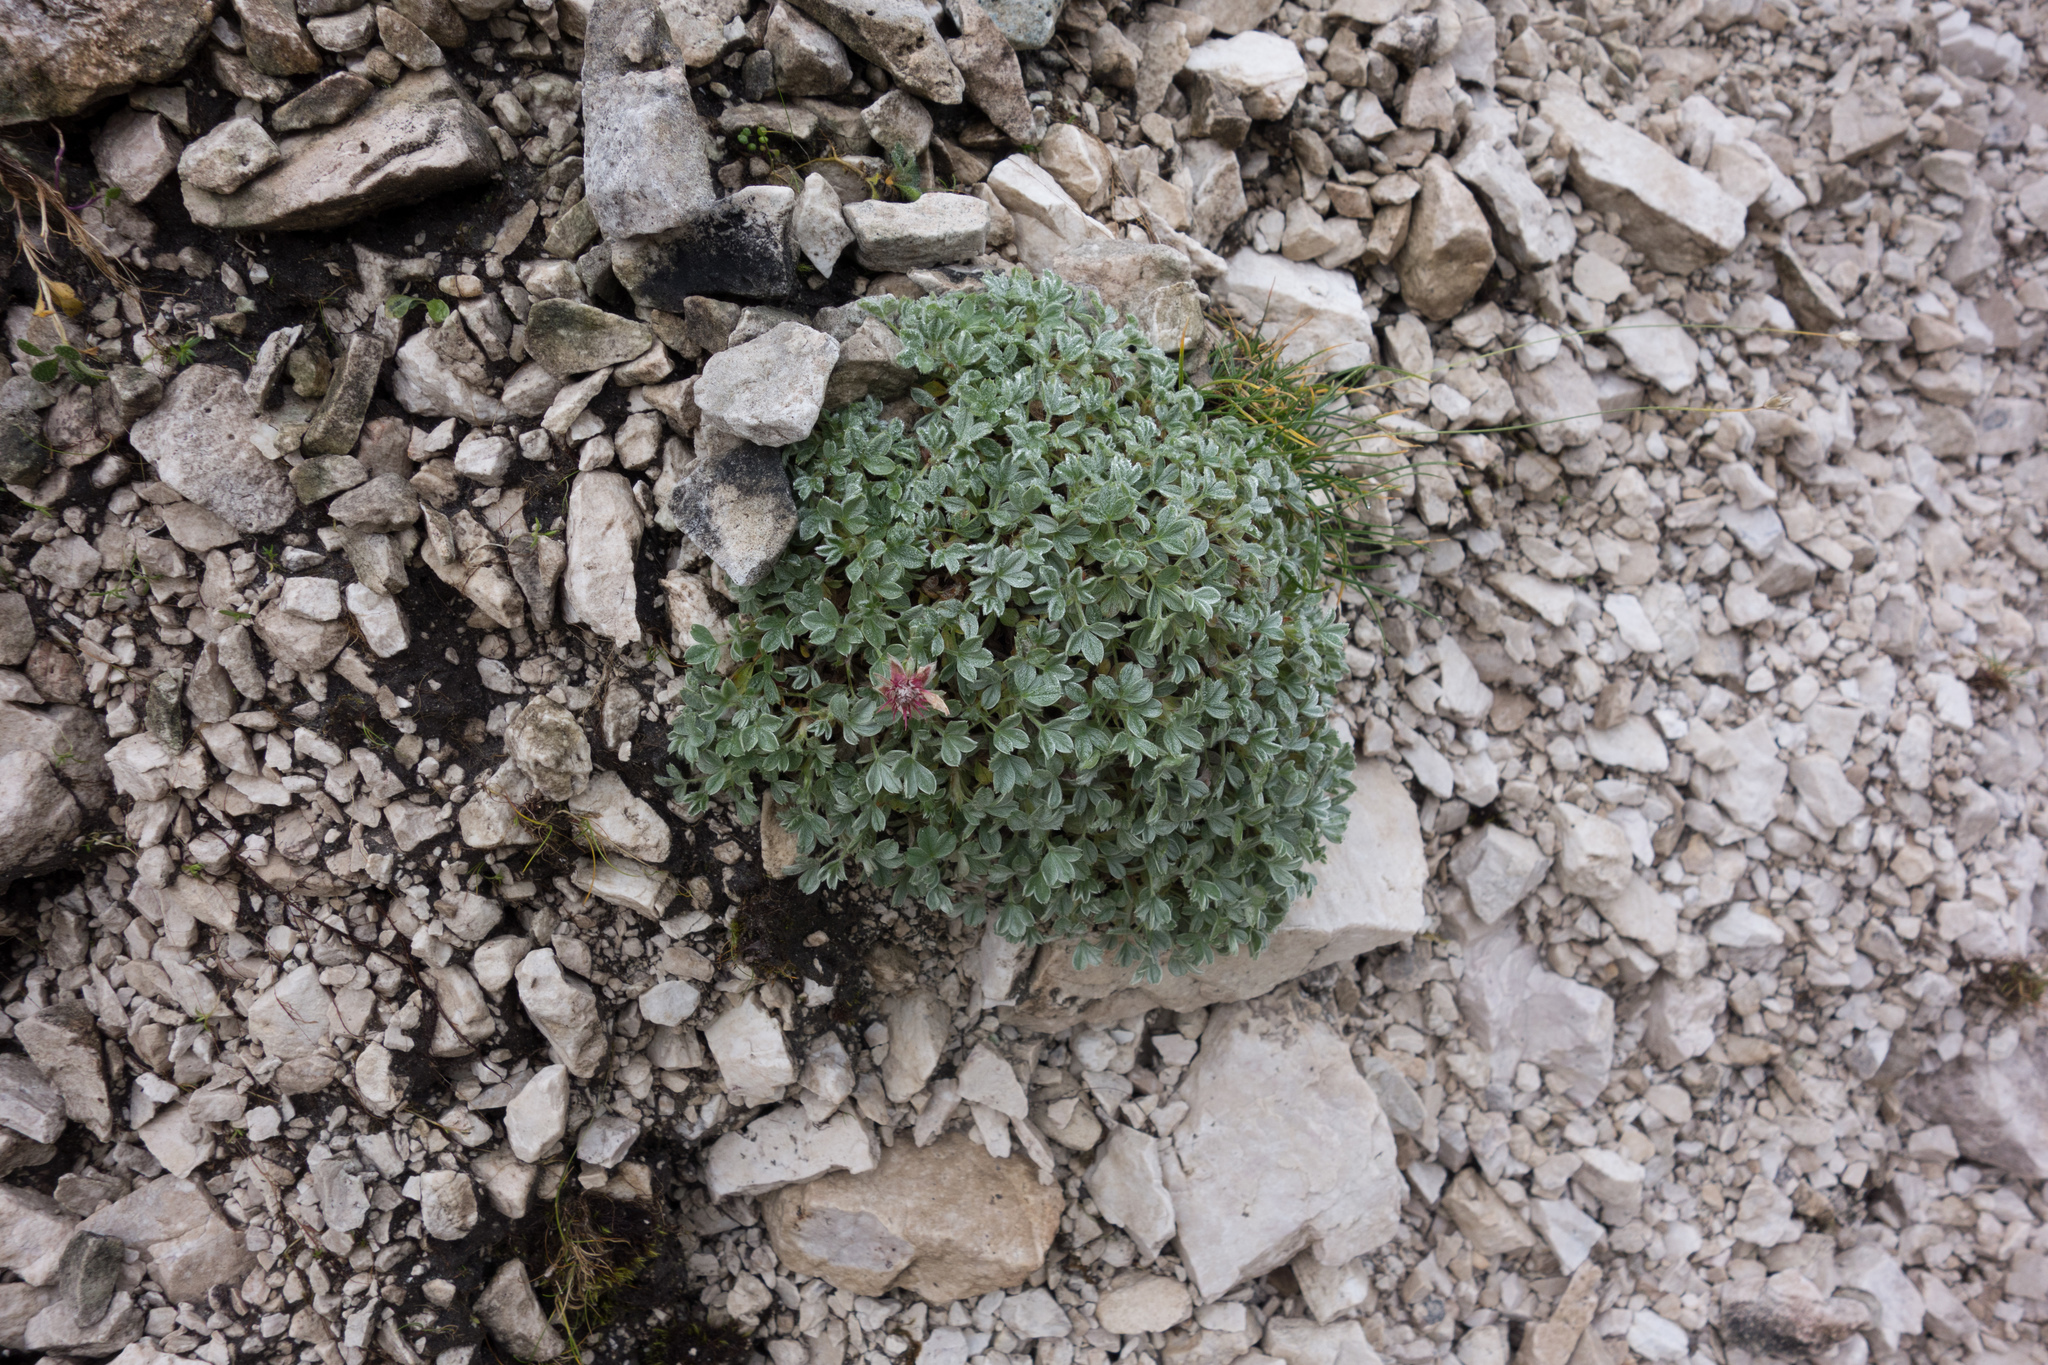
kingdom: Plantae
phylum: Tracheophyta
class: Magnoliopsida
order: Rosales
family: Rosaceae
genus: Potentilla
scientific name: Potentilla nitida
